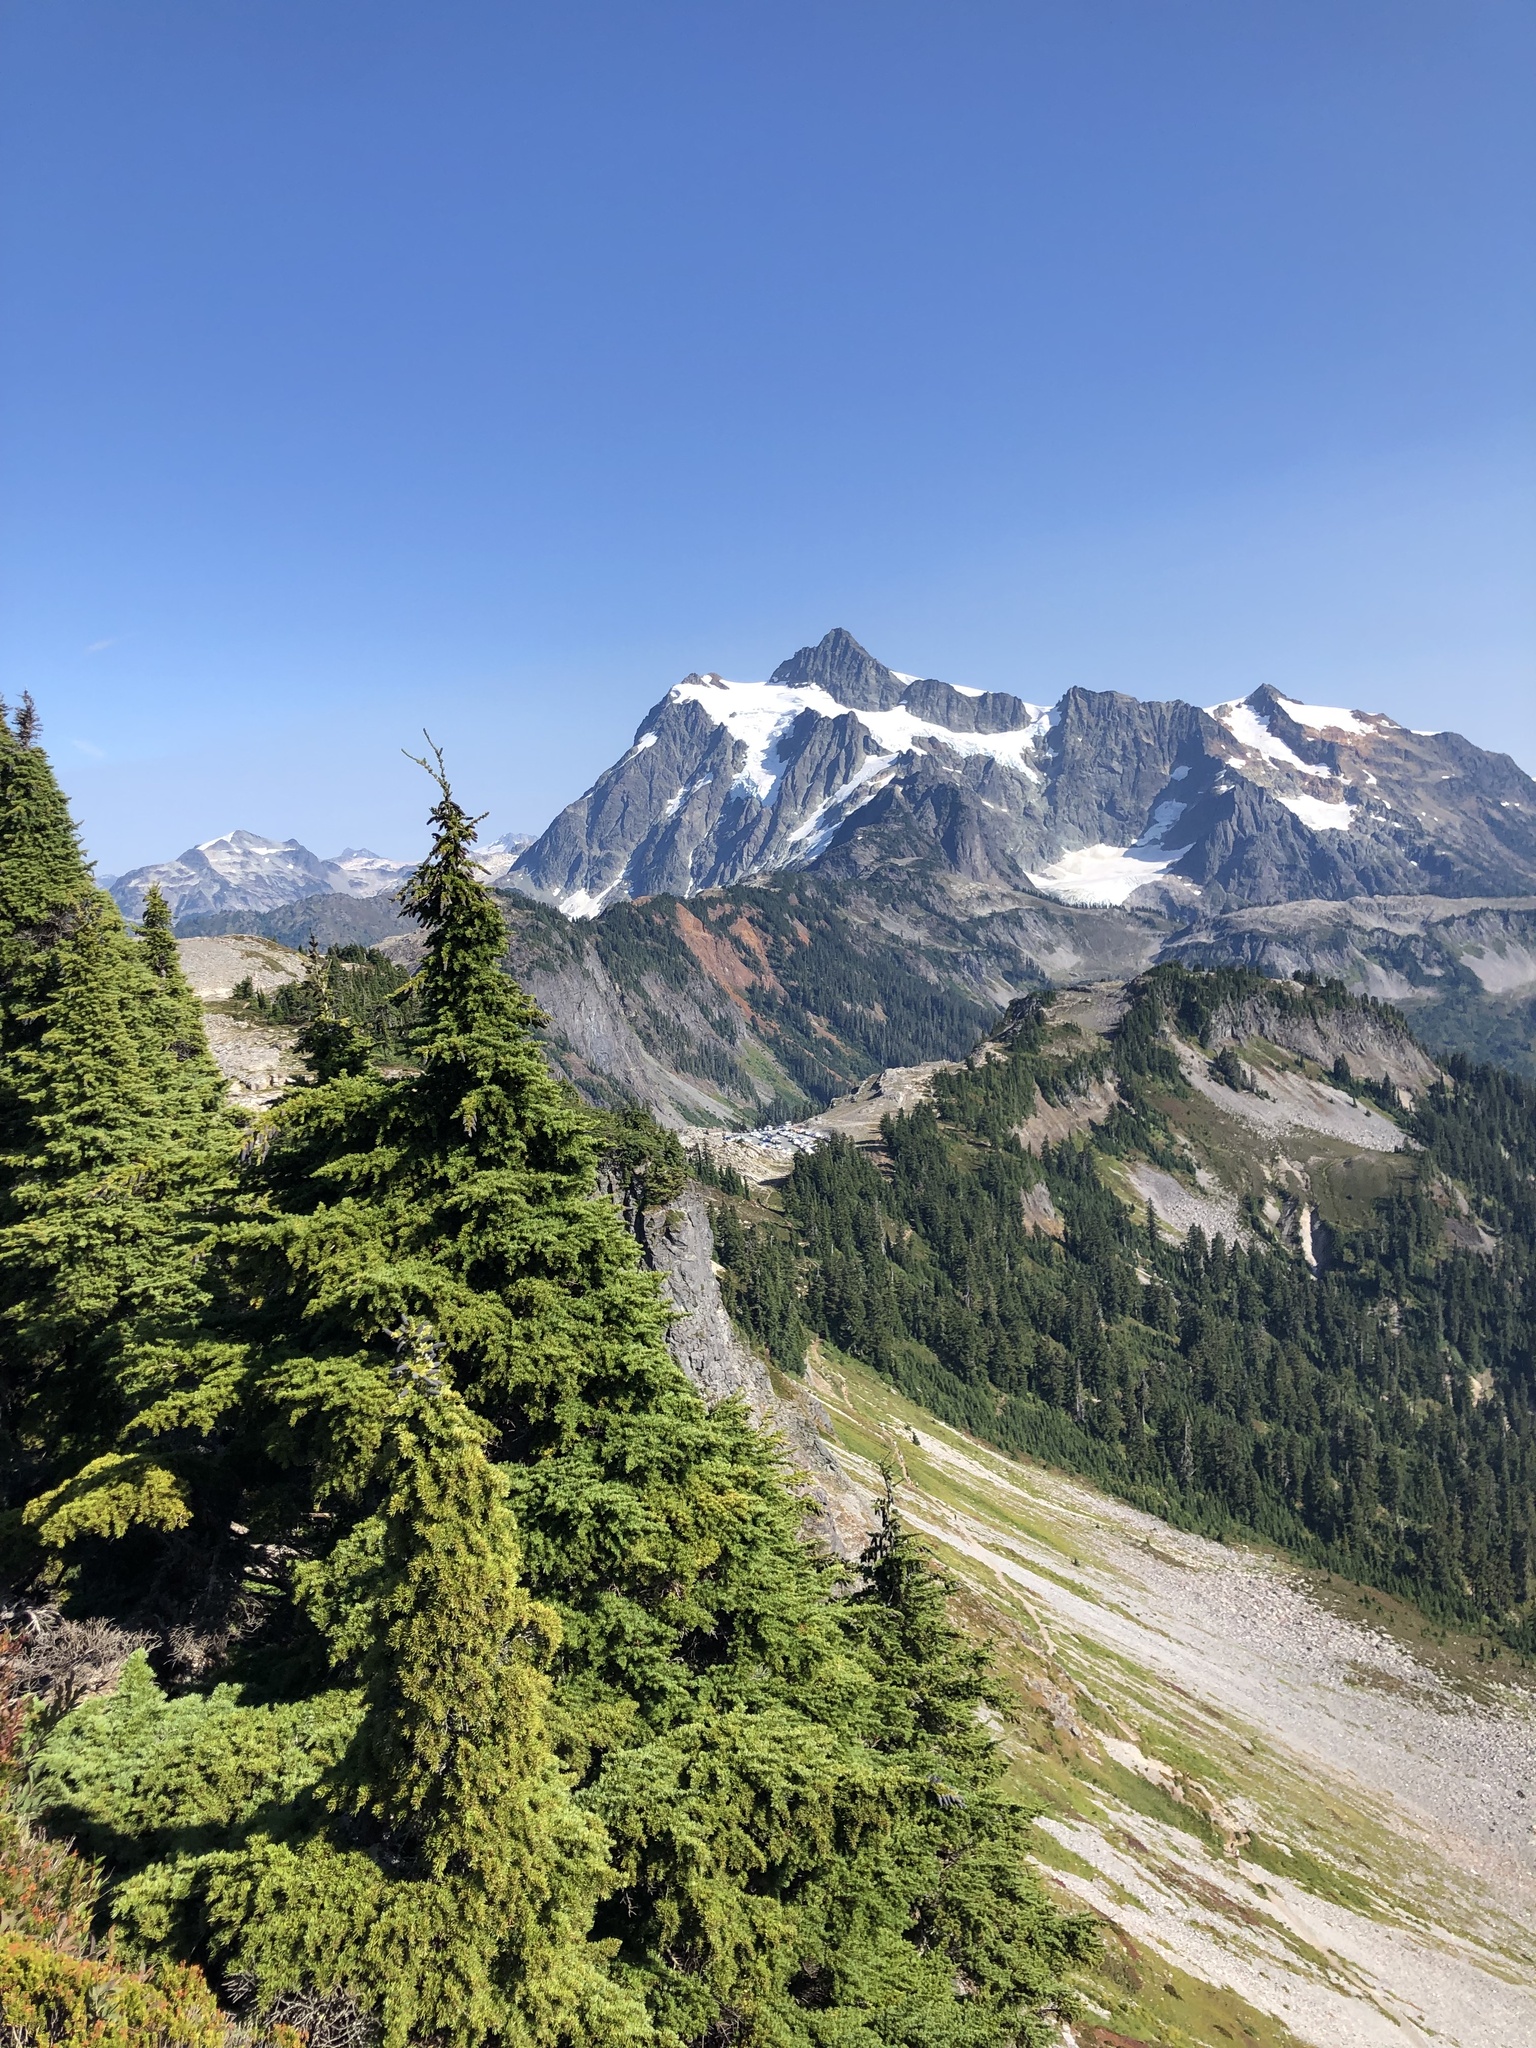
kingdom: Plantae
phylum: Tracheophyta
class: Pinopsida
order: Pinales
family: Pinaceae
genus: Tsuga
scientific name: Tsuga mertensiana
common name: Mountain hemlock
